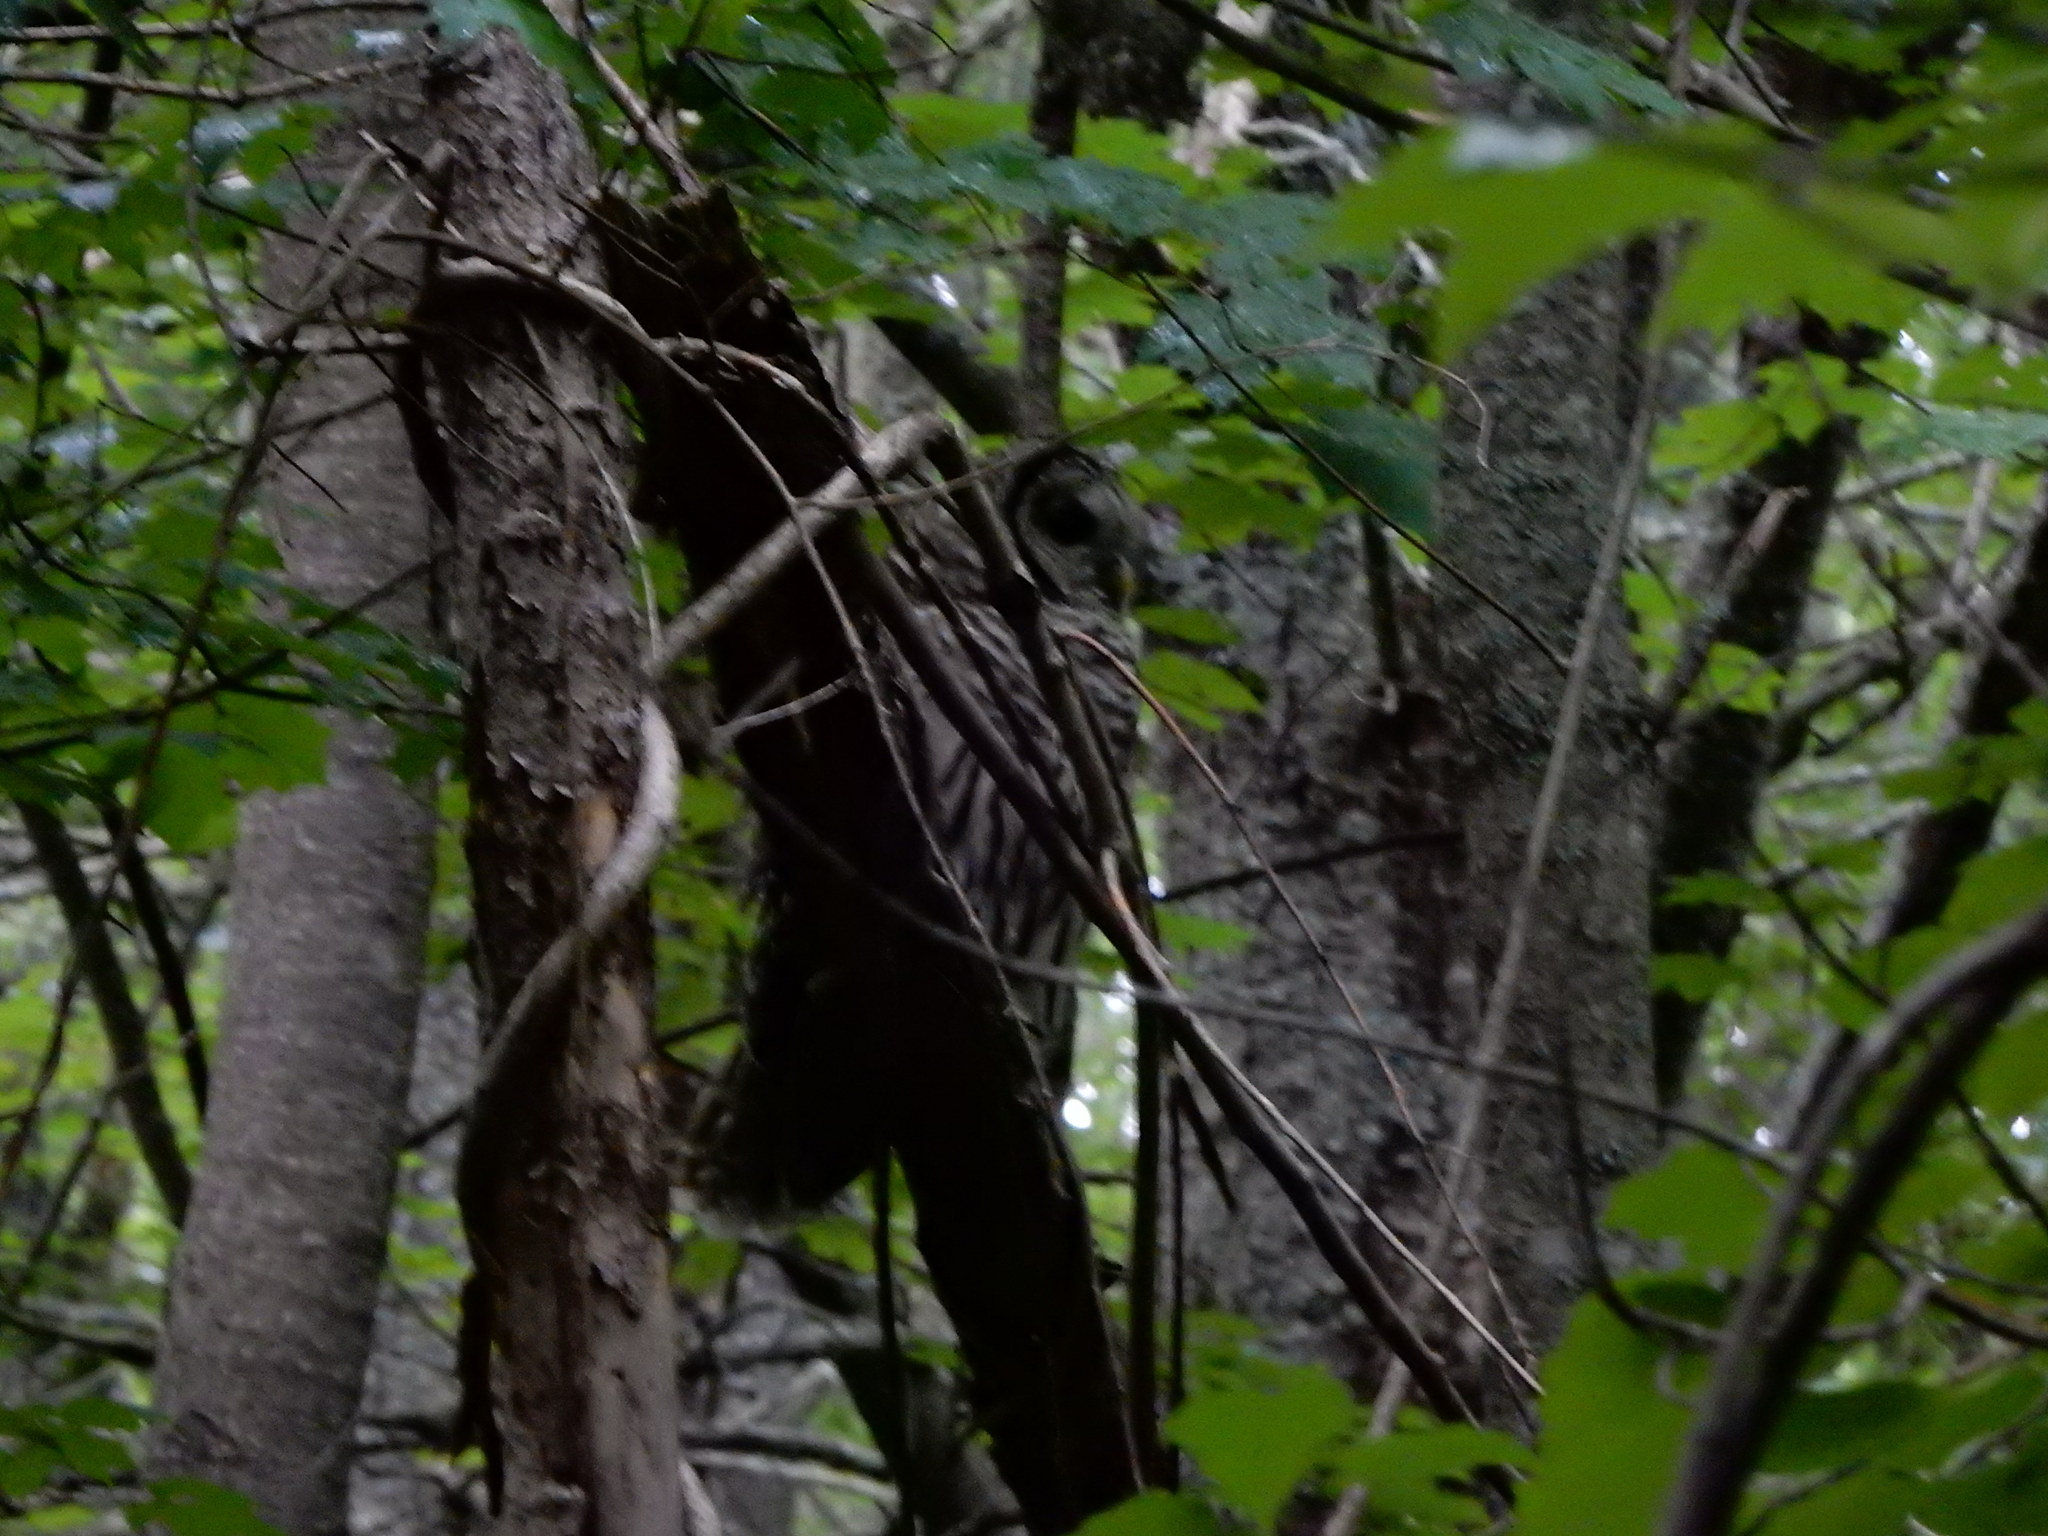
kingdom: Animalia
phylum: Chordata
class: Aves
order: Strigiformes
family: Strigidae
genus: Strix
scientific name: Strix varia
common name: Barred owl
